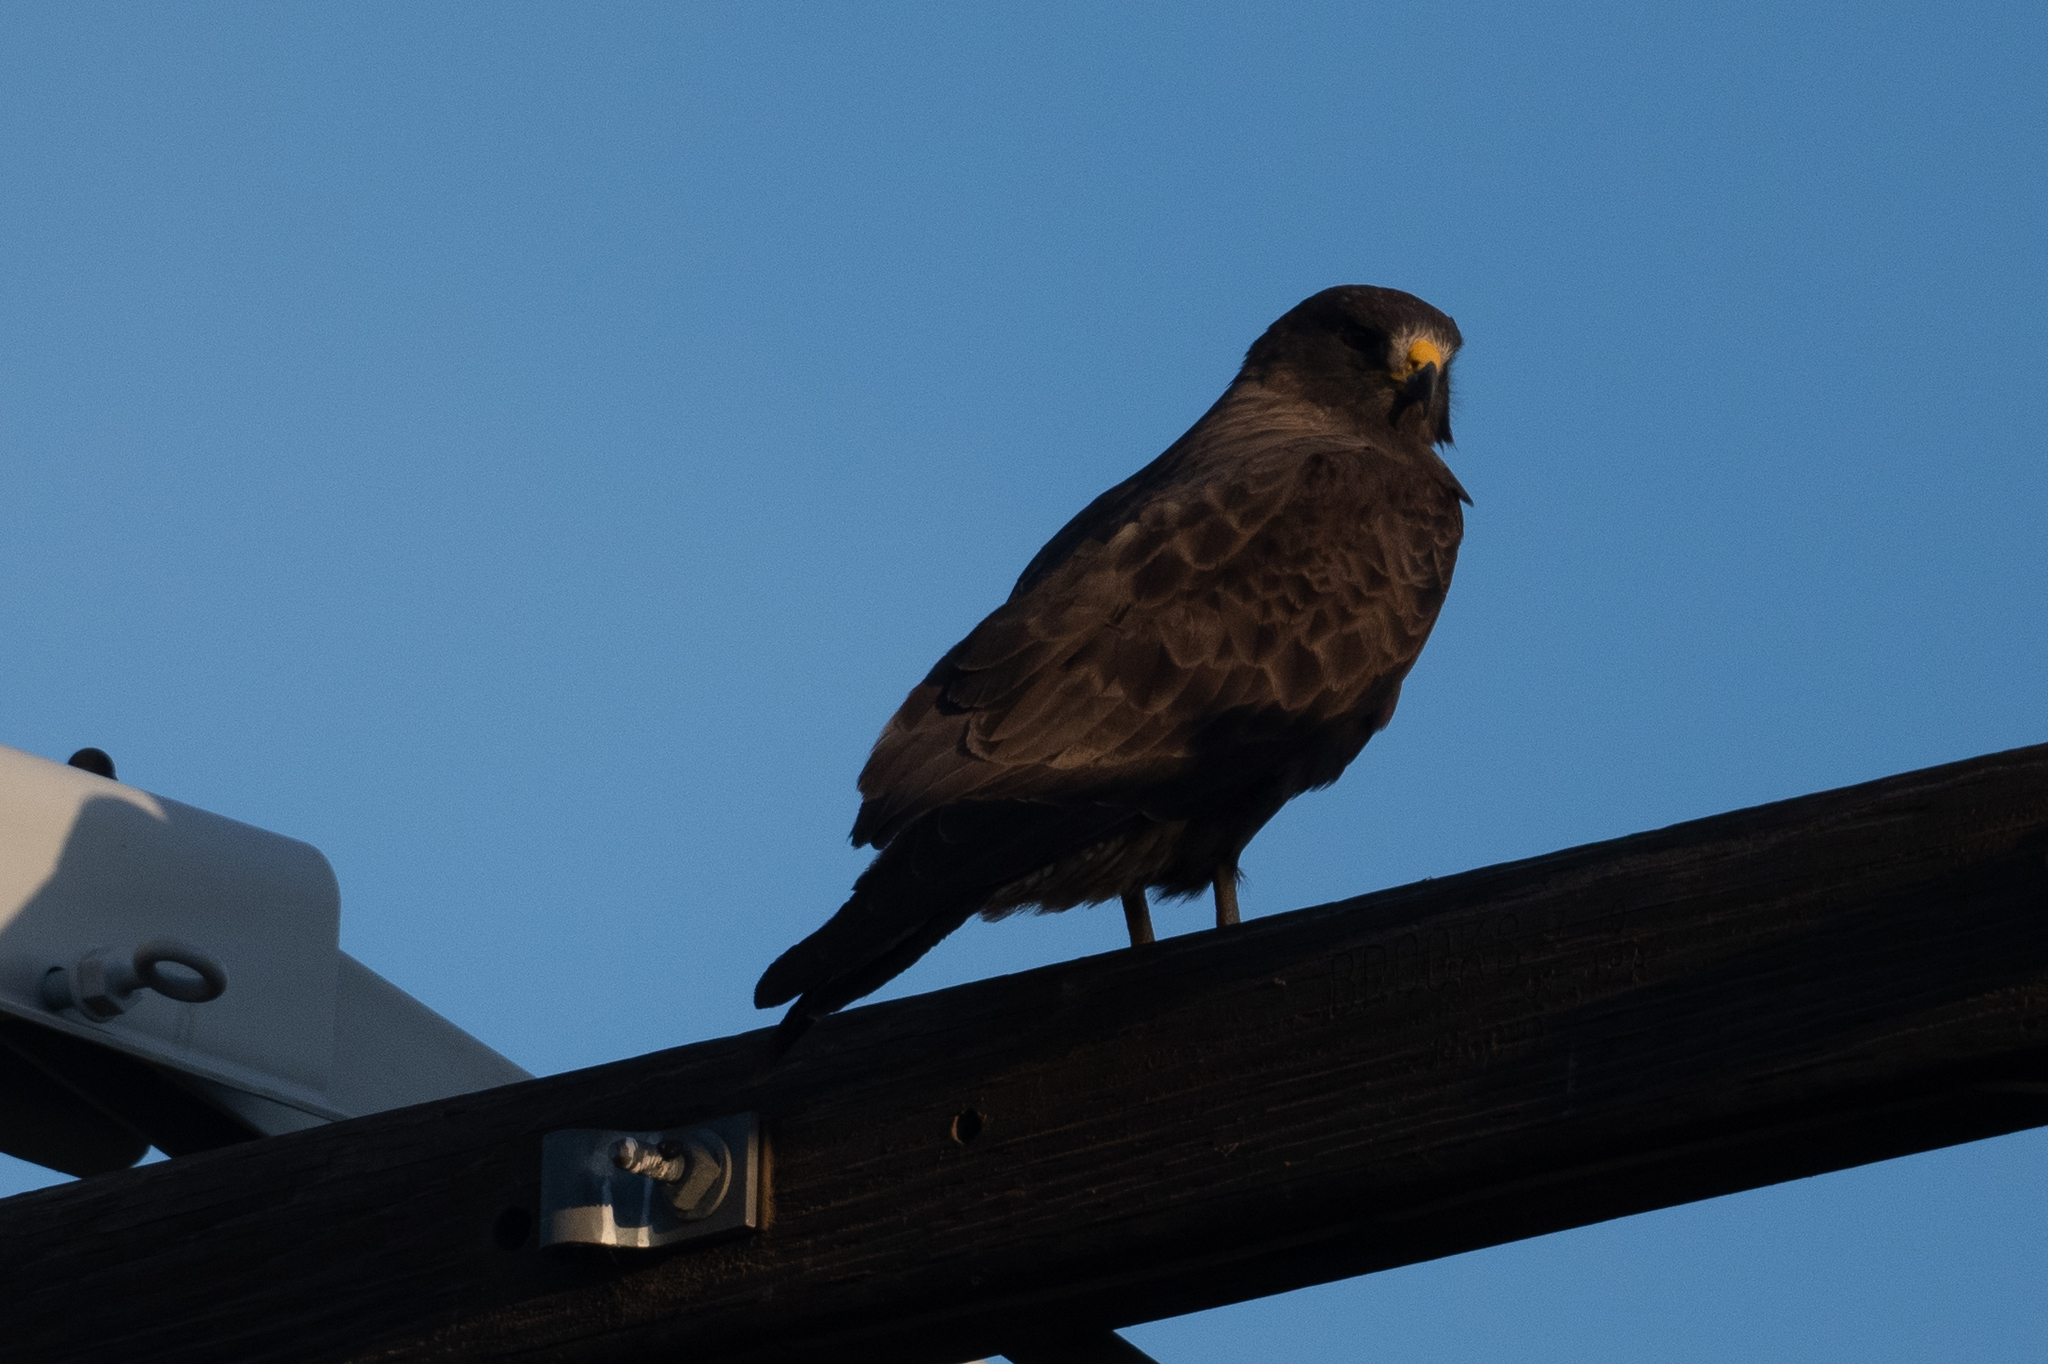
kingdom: Animalia
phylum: Chordata
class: Aves
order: Accipitriformes
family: Accipitridae
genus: Buteo
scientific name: Buteo swainsoni
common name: Swainson's hawk
